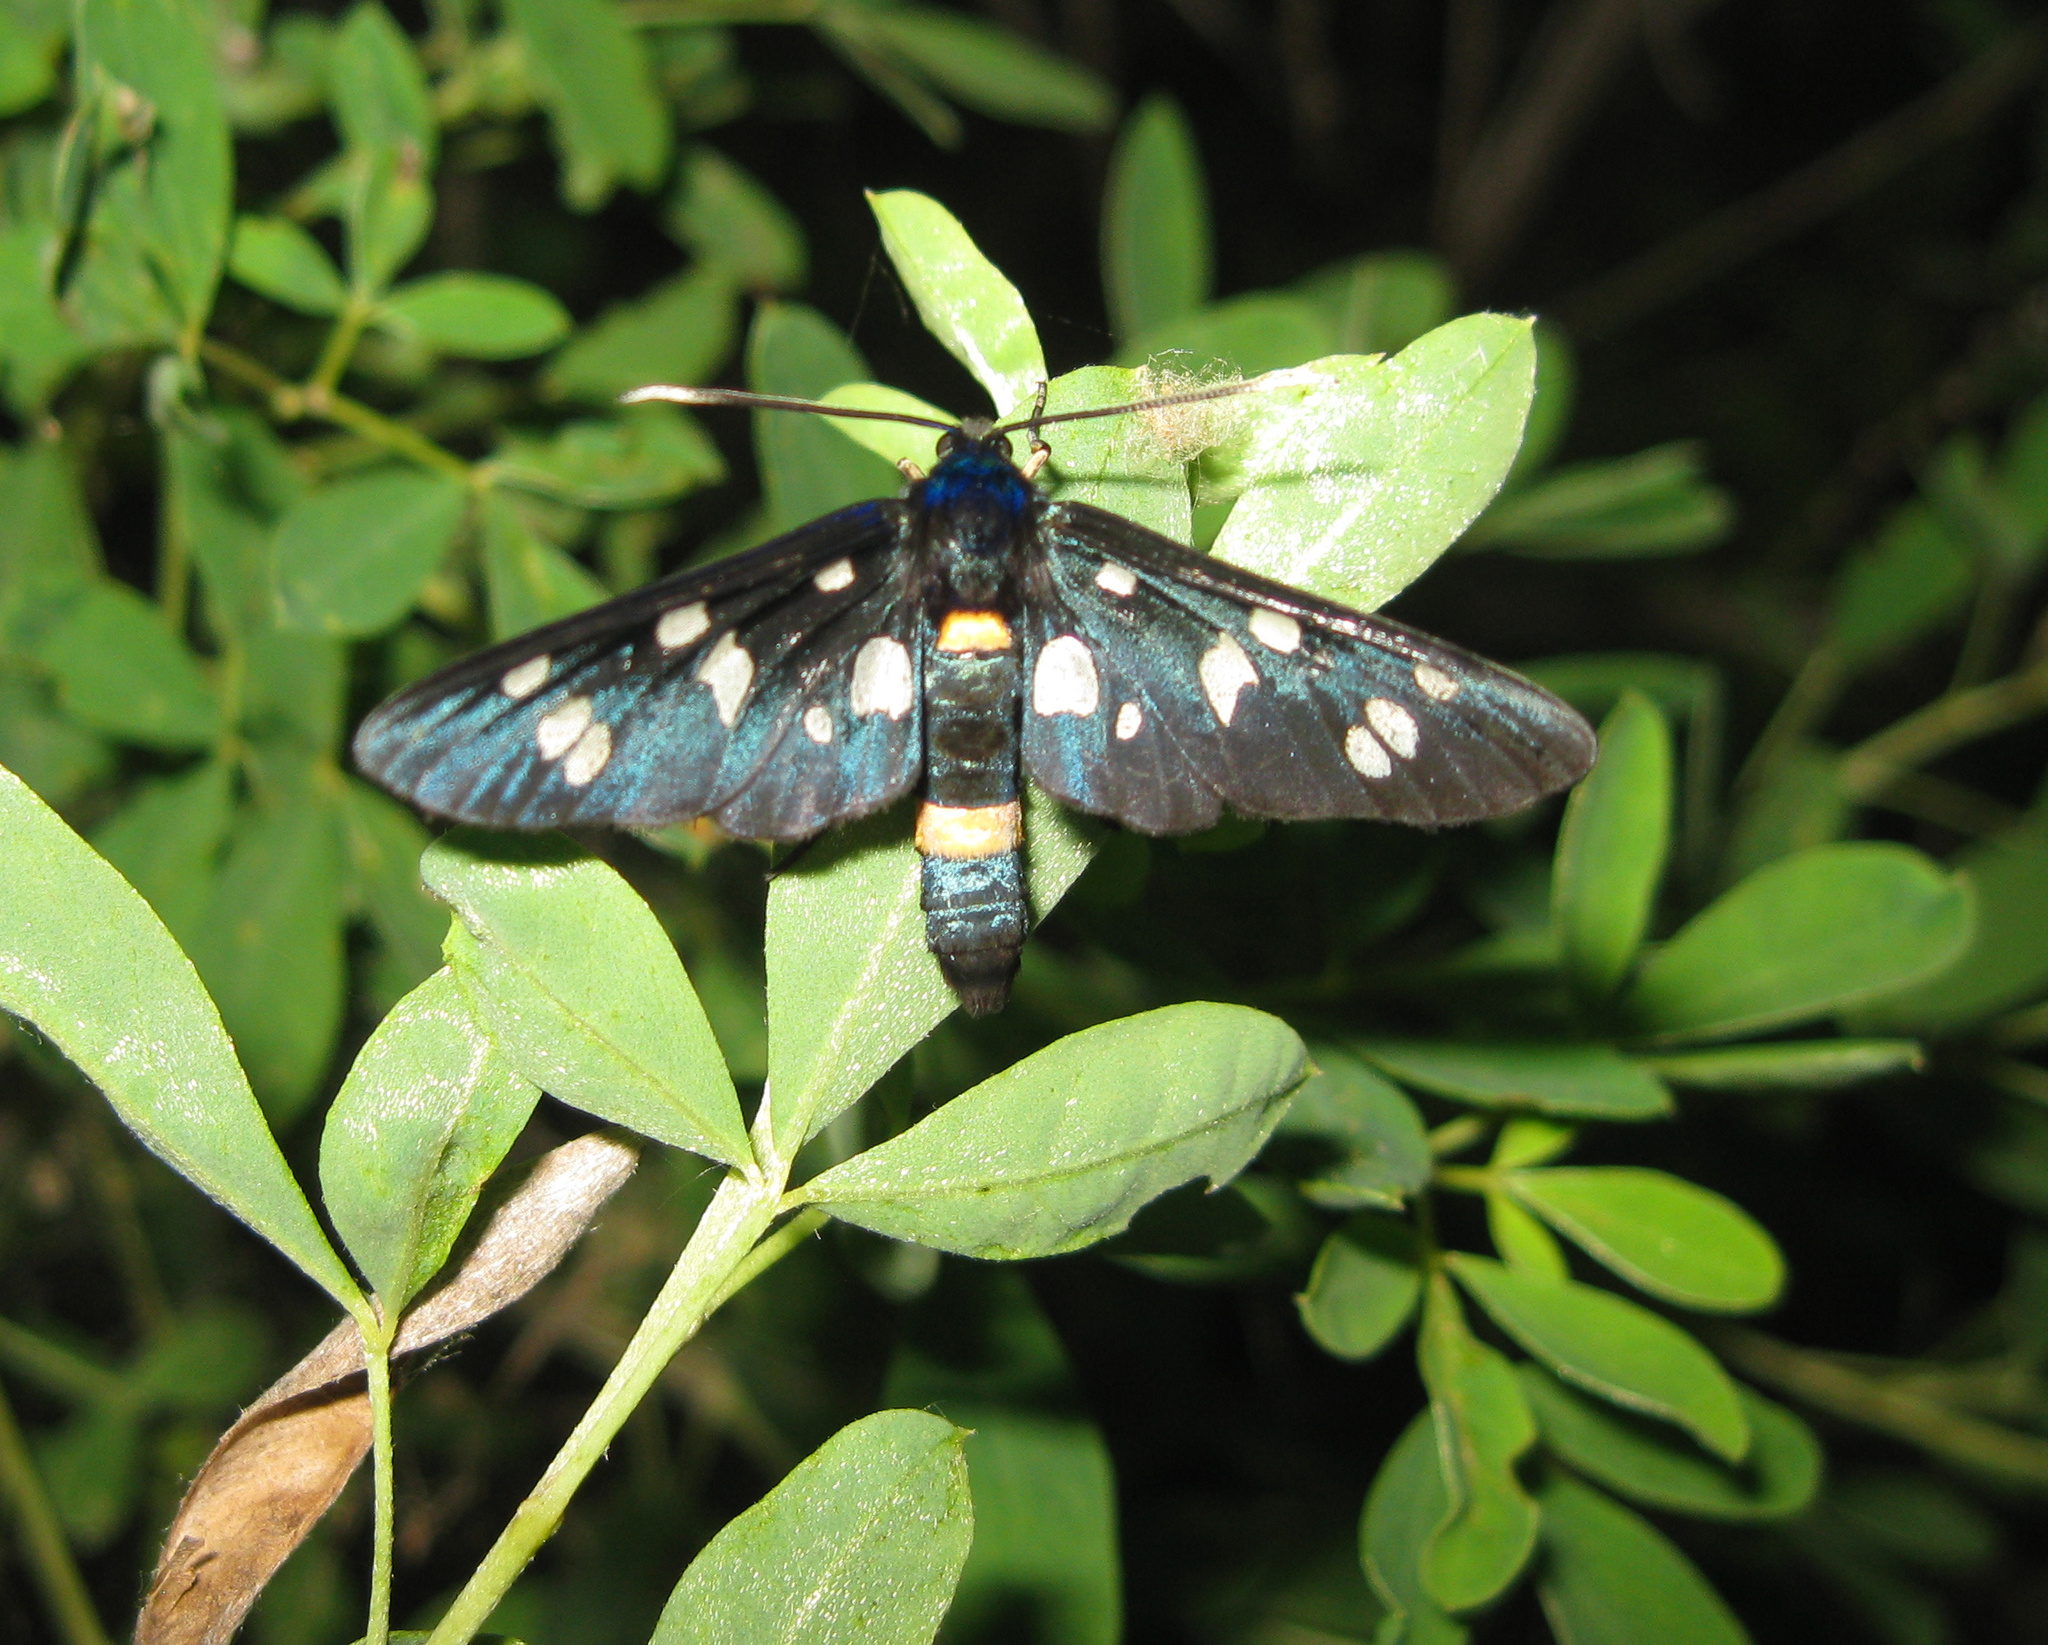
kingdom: Animalia
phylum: Arthropoda
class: Insecta
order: Lepidoptera
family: Erebidae
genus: Amata
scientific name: Amata nigricornis
